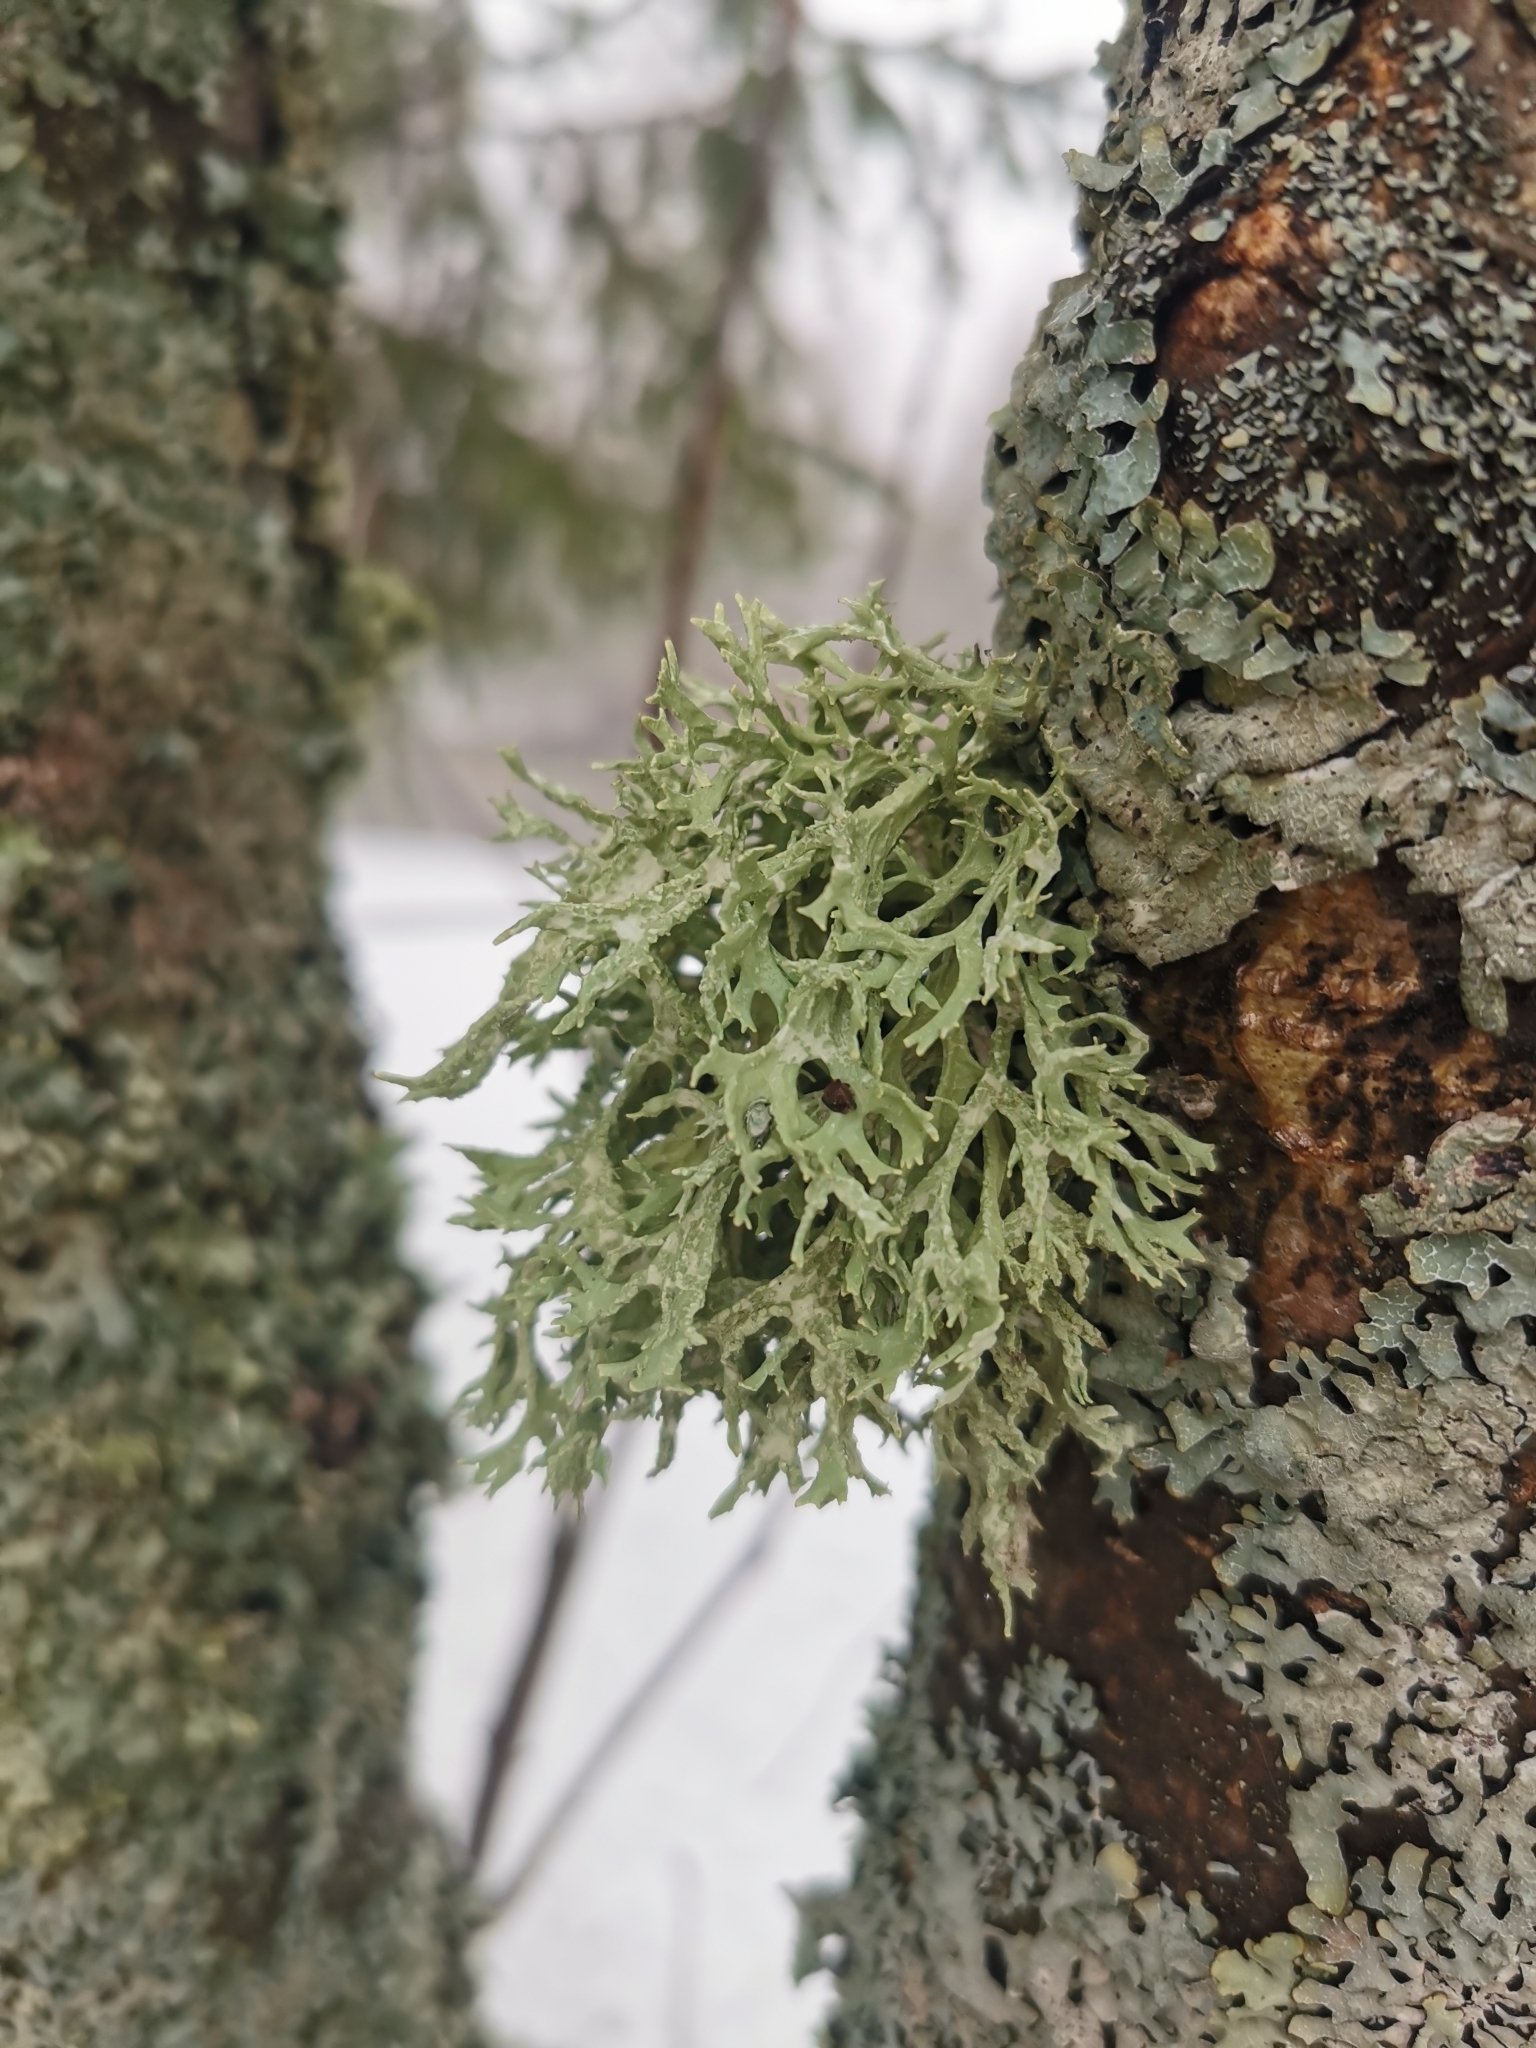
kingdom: Fungi
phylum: Ascomycota
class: Lecanoromycetes
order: Lecanorales
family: Parmeliaceae
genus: Evernia
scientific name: Evernia prunastri
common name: Oak moss
